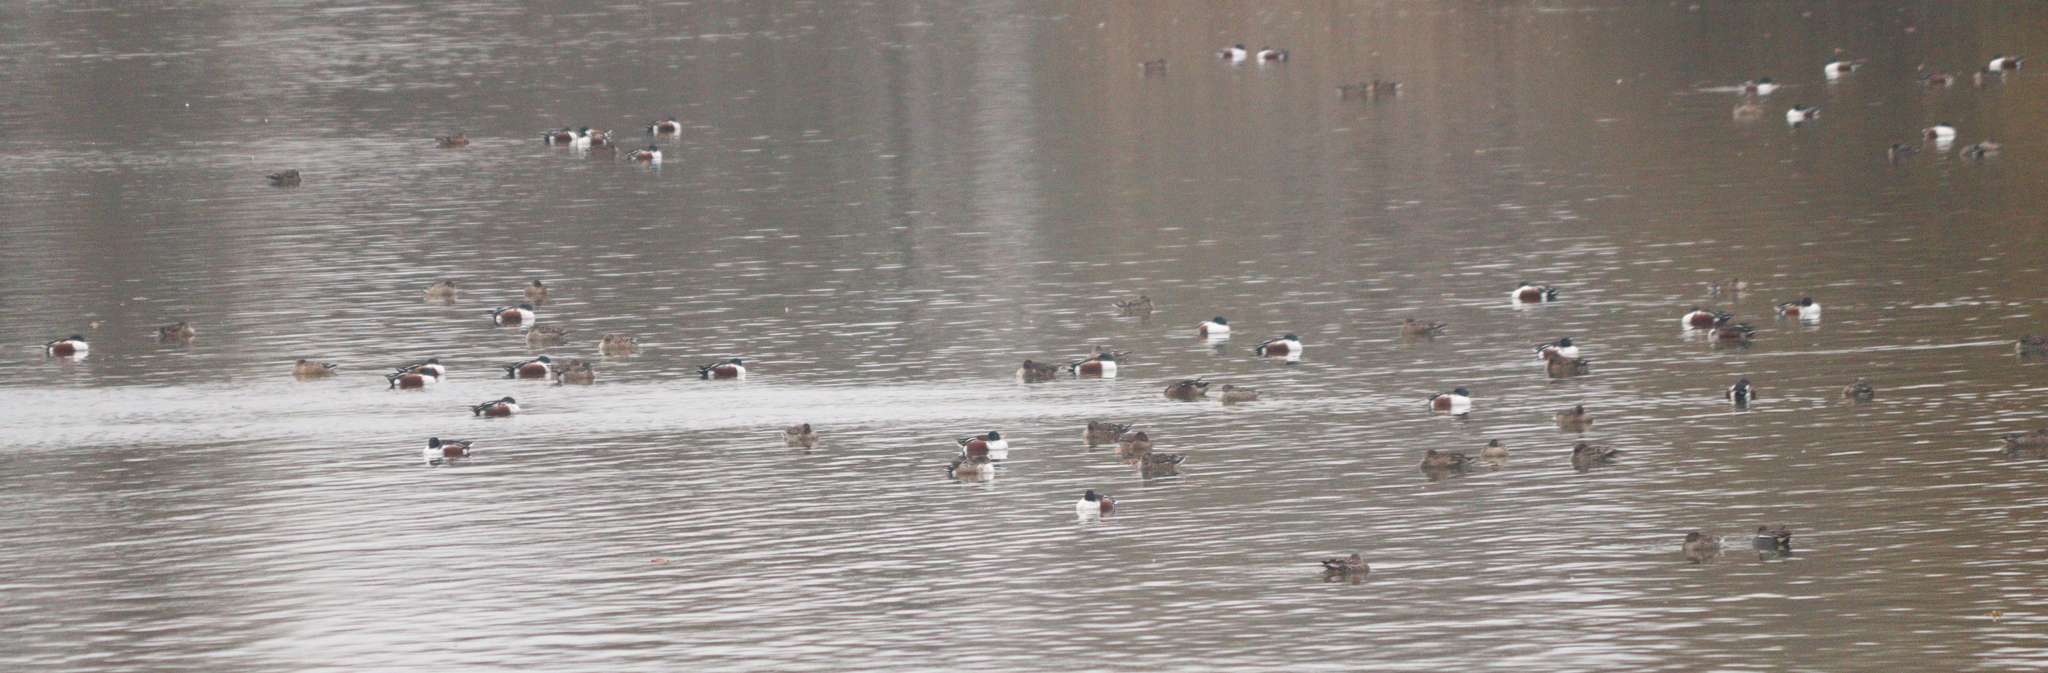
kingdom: Animalia
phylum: Chordata
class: Aves
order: Anseriformes
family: Anatidae
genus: Spatula
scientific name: Spatula clypeata
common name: Northern shoveler
